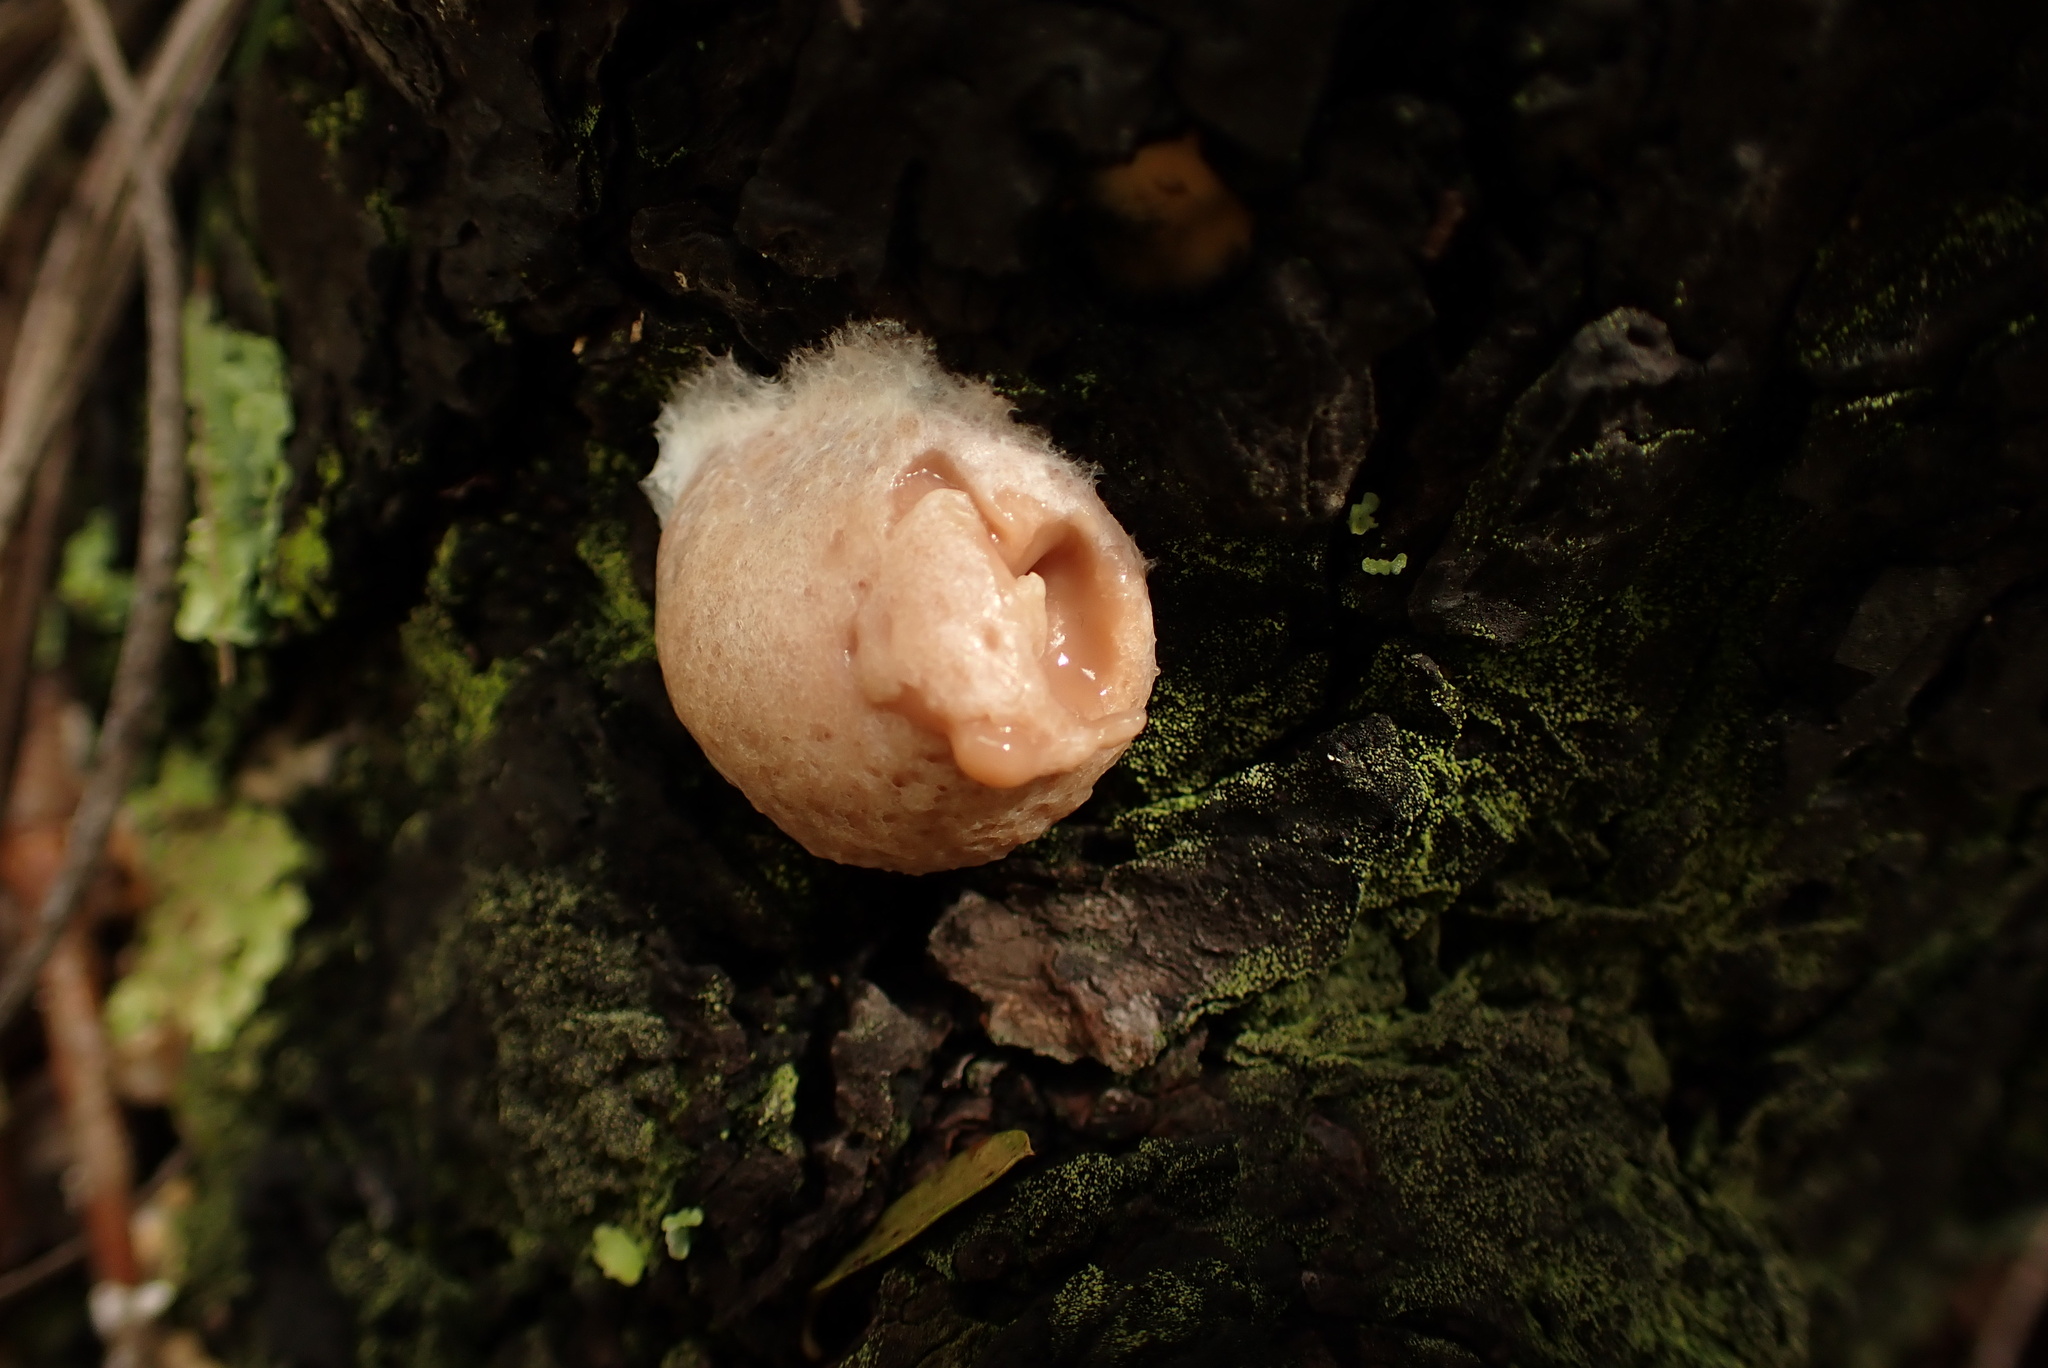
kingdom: Protozoa
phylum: Mycetozoa
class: Myxomycetes
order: Cribrariales
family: Tubiferaceae
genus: Reticularia
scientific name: Reticularia lycoperdon
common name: False puffball
